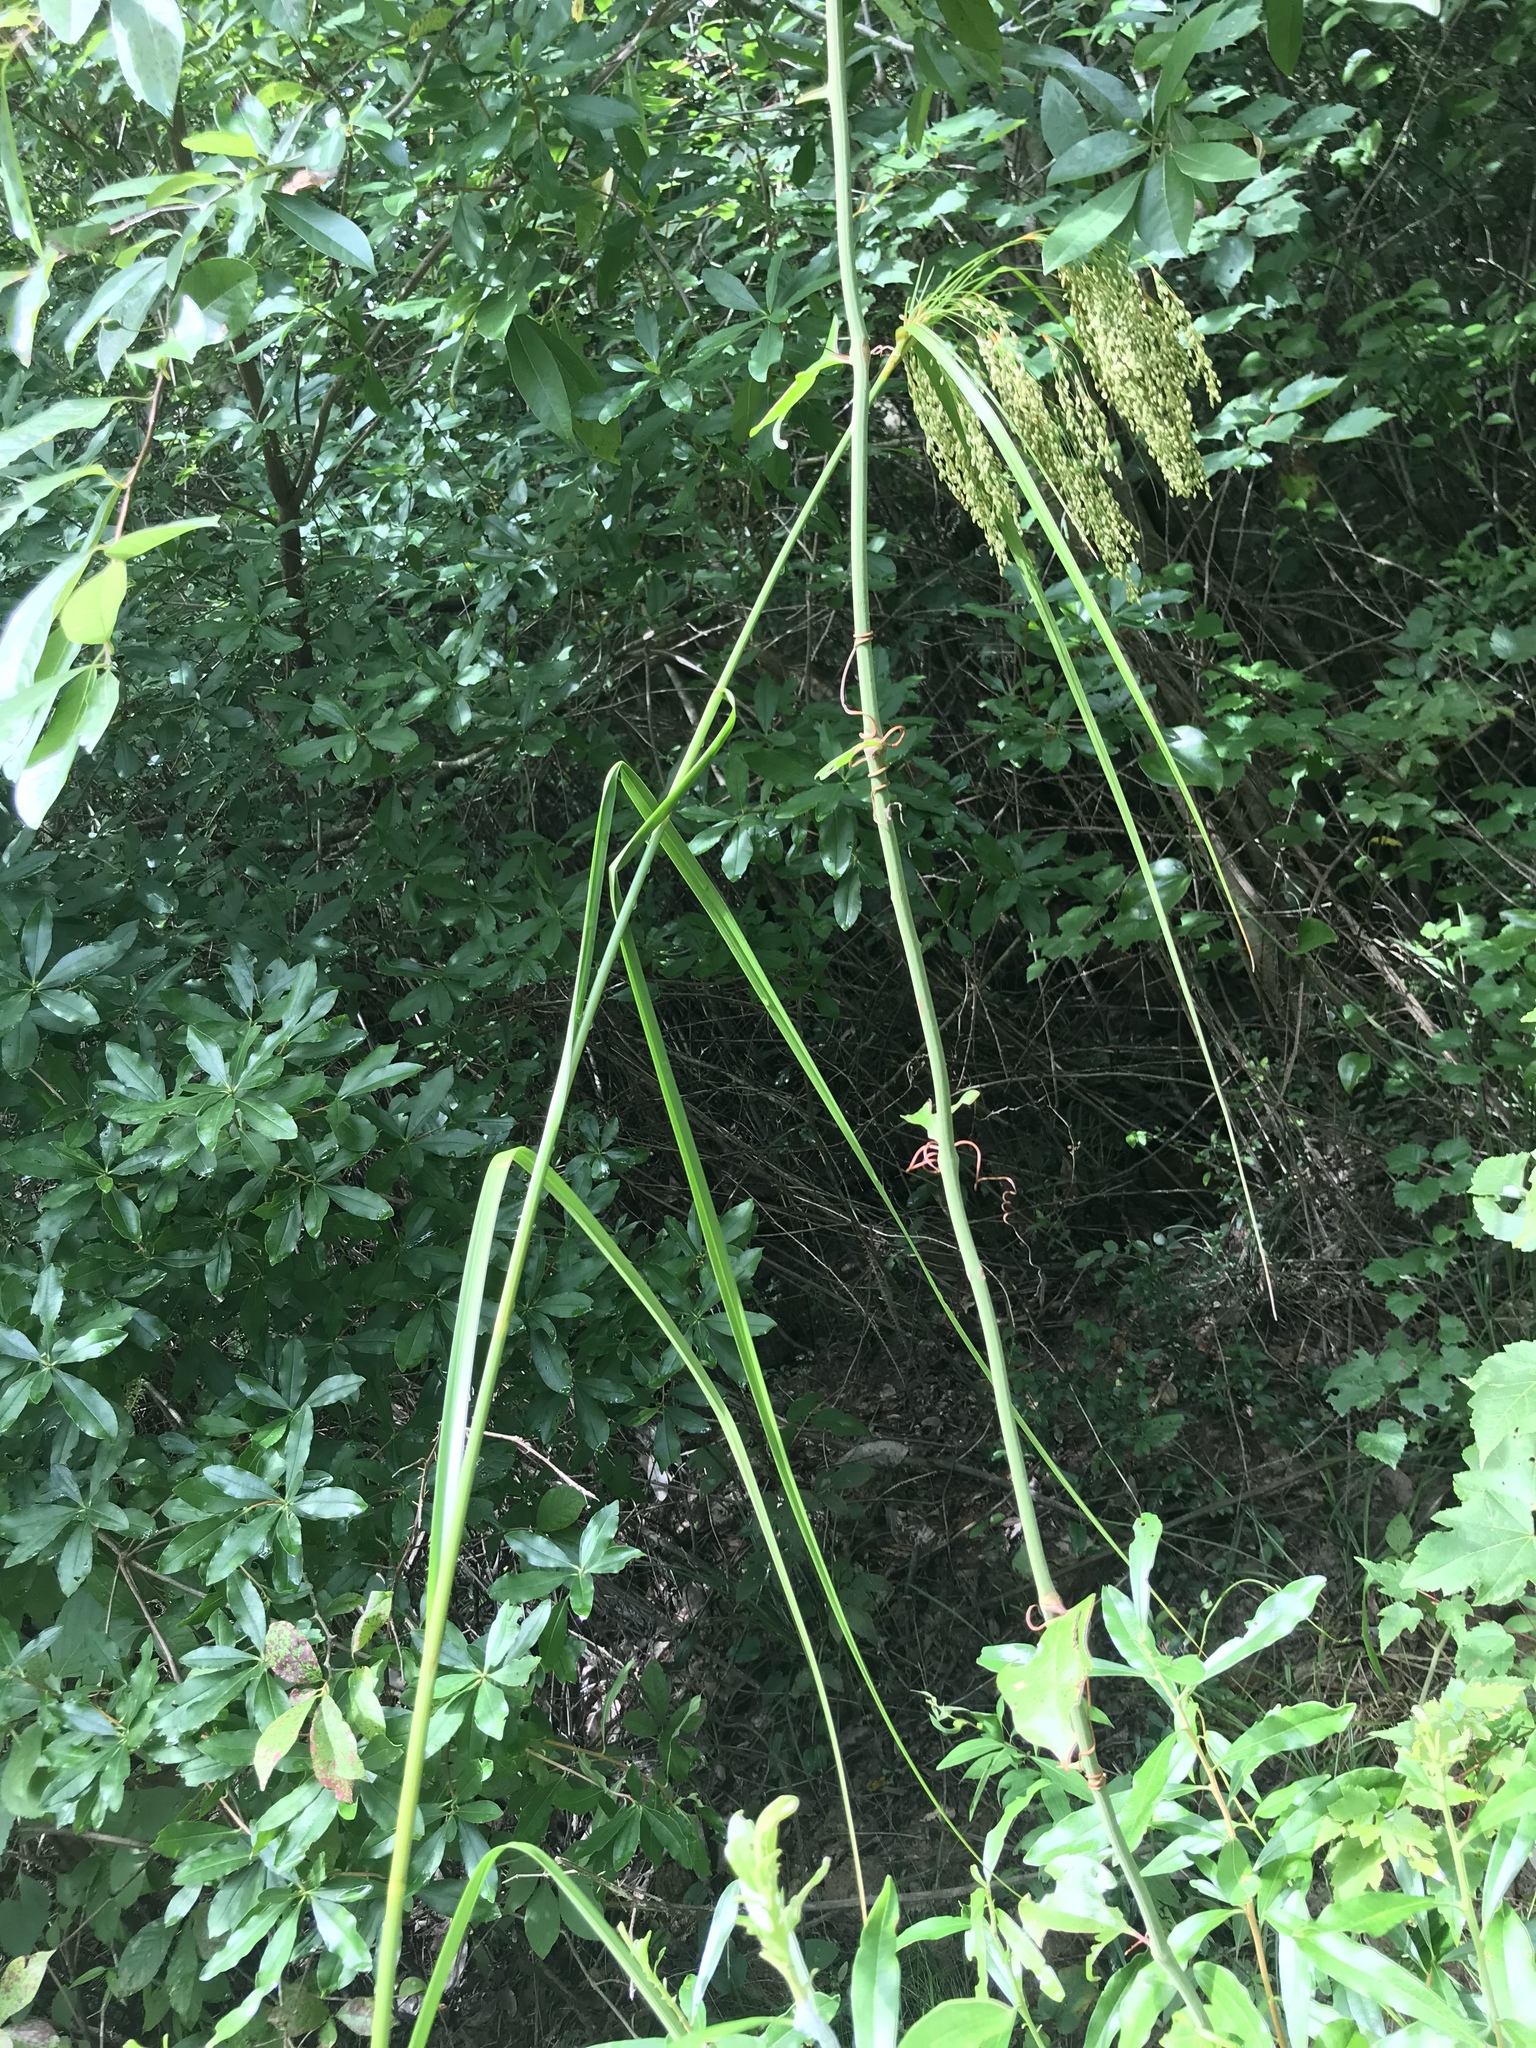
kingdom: Plantae
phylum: Tracheophyta
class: Liliopsida
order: Poales
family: Cyperaceae
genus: Scirpus
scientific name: Scirpus cyperinus
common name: Black-sheathed bulrush
